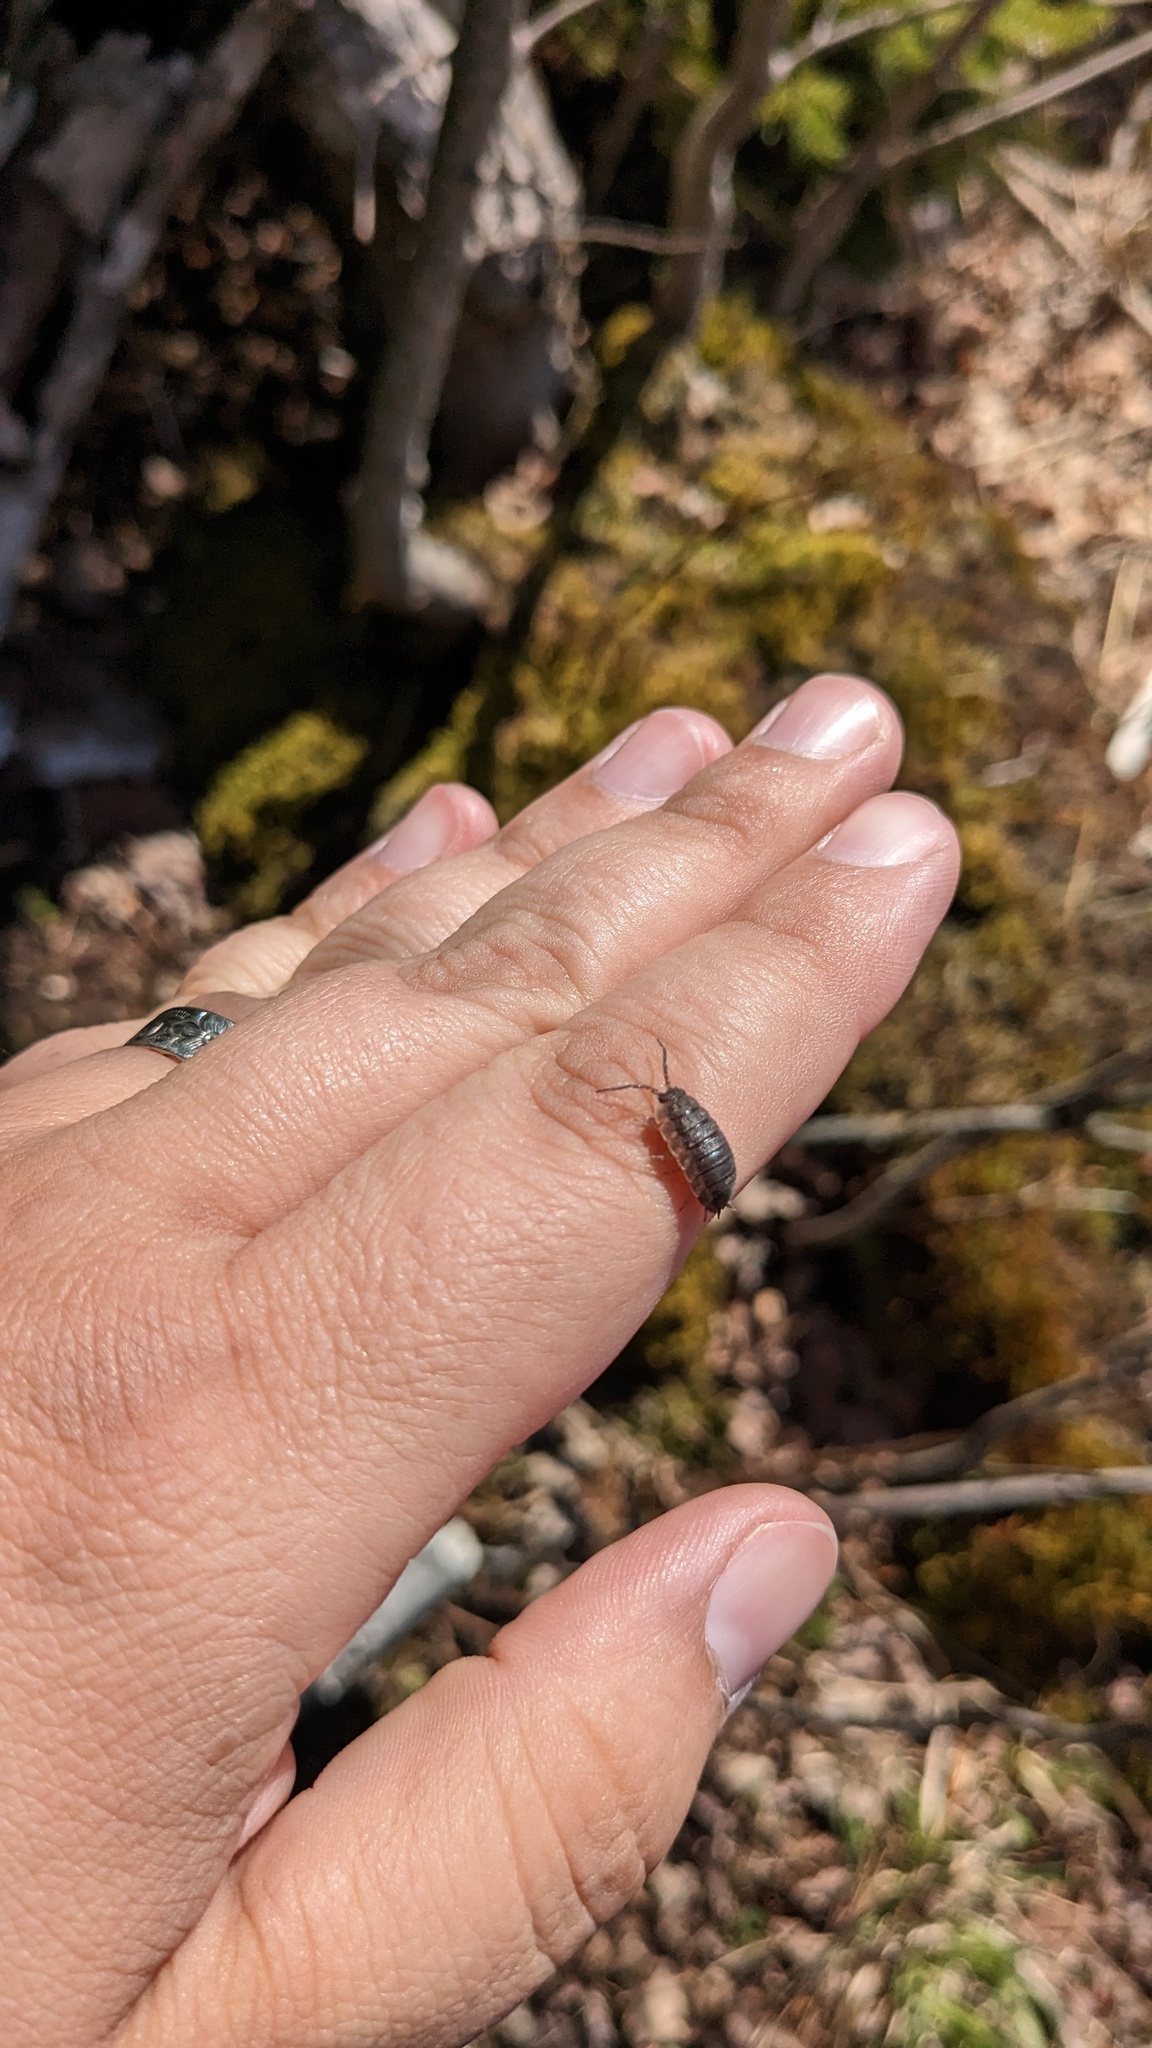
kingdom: Animalia
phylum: Arthropoda
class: Malacostraca
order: Isopoda
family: Porcellionidae
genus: Porcellio
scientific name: Porcellio scaber
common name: Common rough woodlouse
